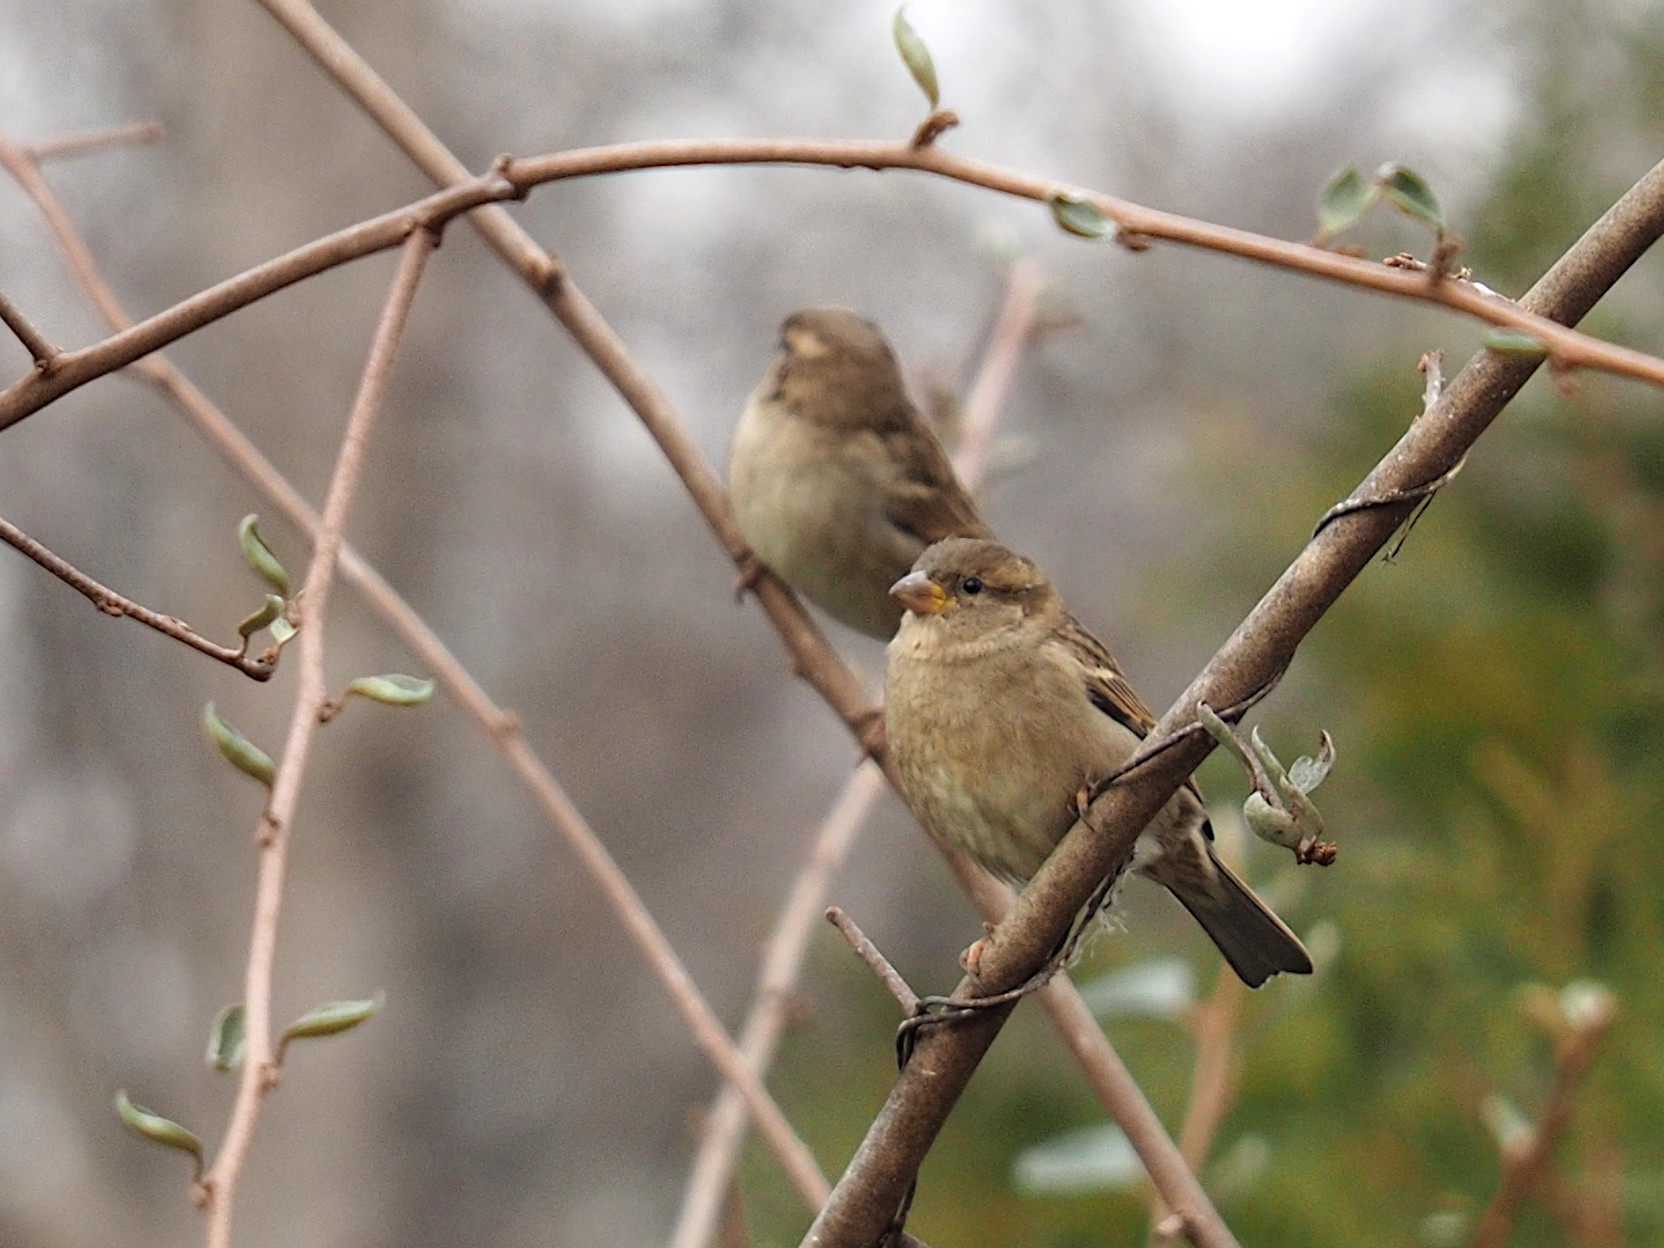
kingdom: Animalia
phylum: Chordata
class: Aves
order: Passeriformes
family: Passeridae
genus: Passer
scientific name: Passer domesticus
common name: House sparrow
